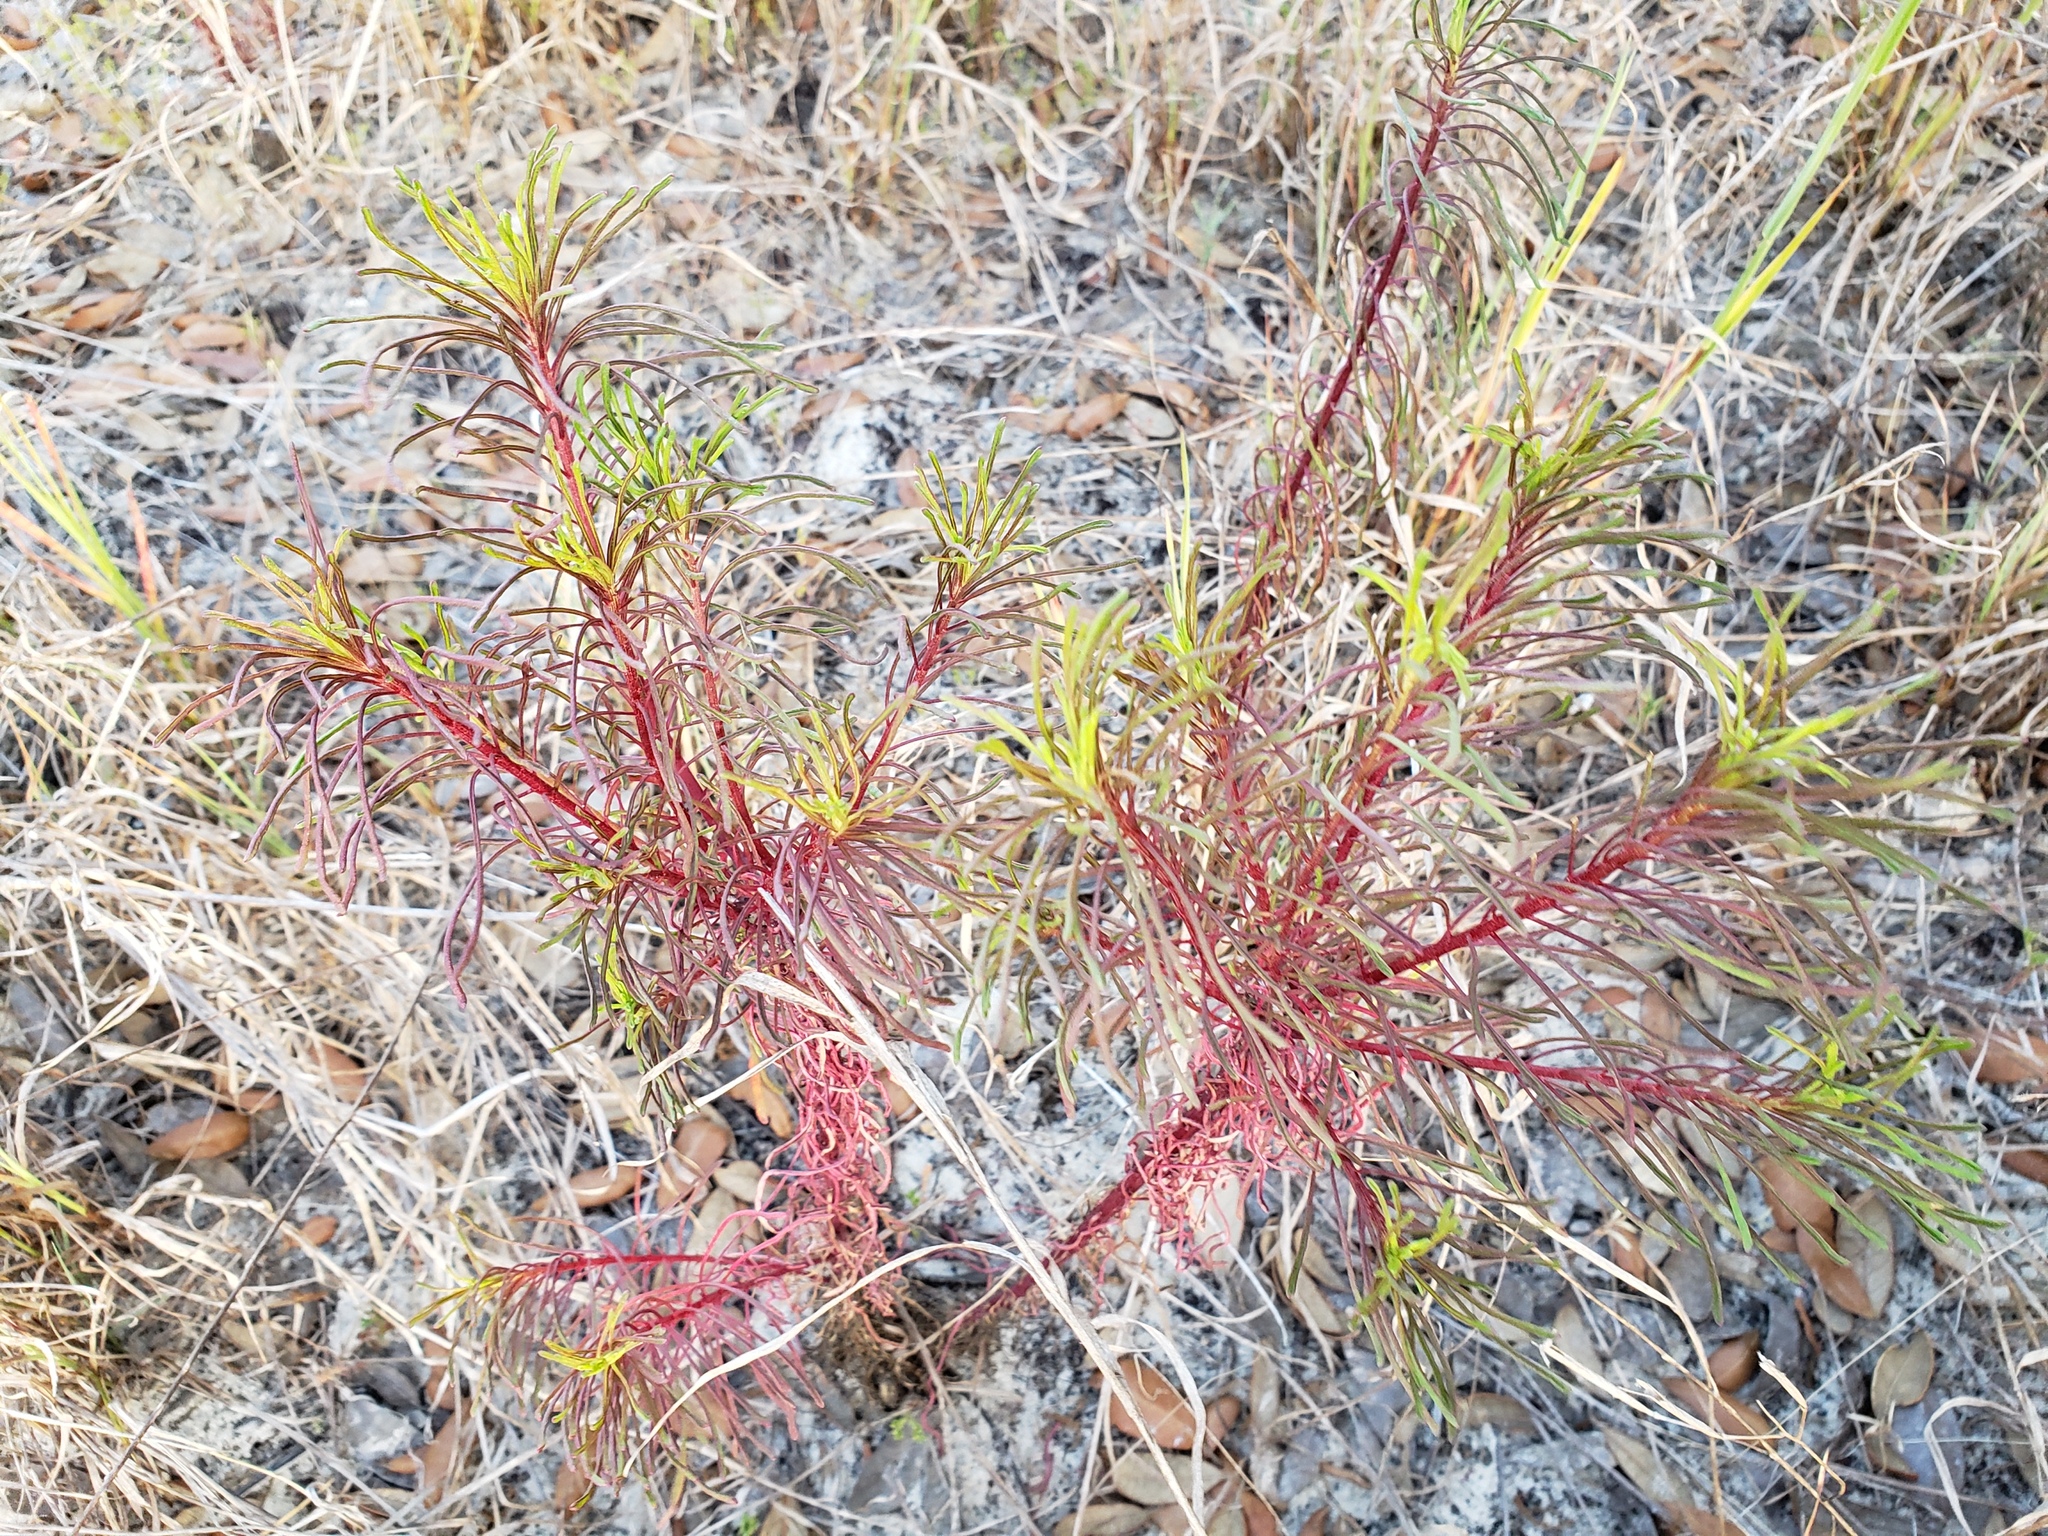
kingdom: Plantae
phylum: Tracheophyta
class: Magnoliopsida
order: Asterales
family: Asteraceae
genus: Balduina
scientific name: Balduina angustifolia
